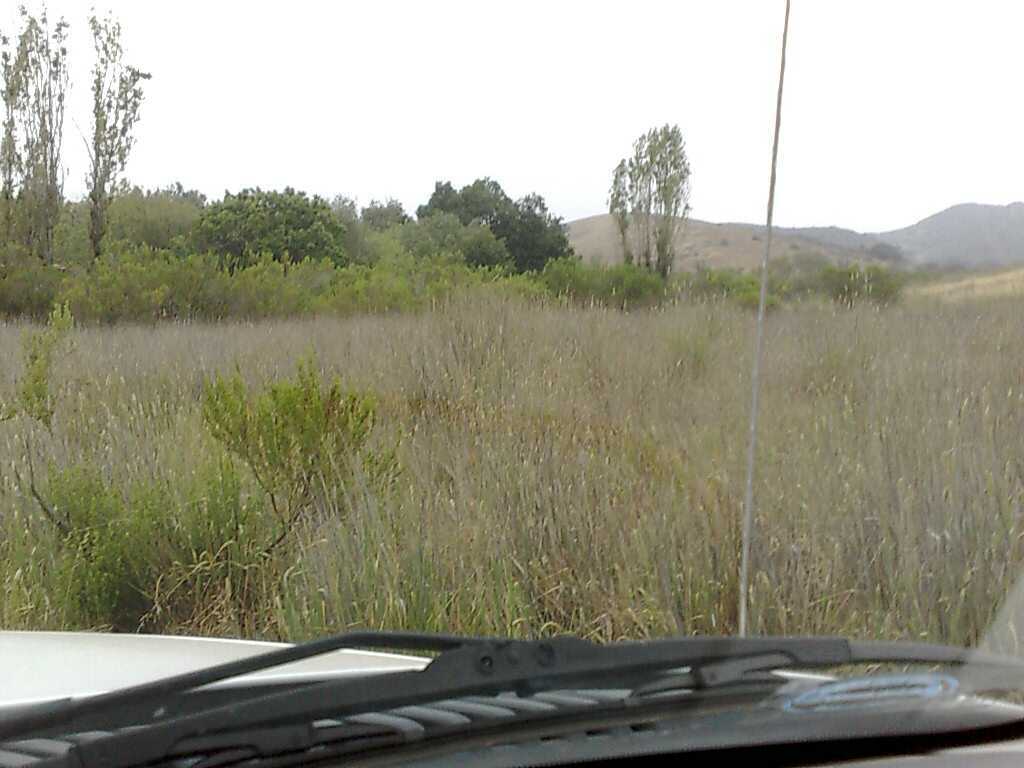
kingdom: Plantae
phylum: Tracheophyta
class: Magnoliopsida
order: Asterales
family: Asteraceae
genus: Baccharis
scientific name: Baccharis pilularis
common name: Coyotebrush
